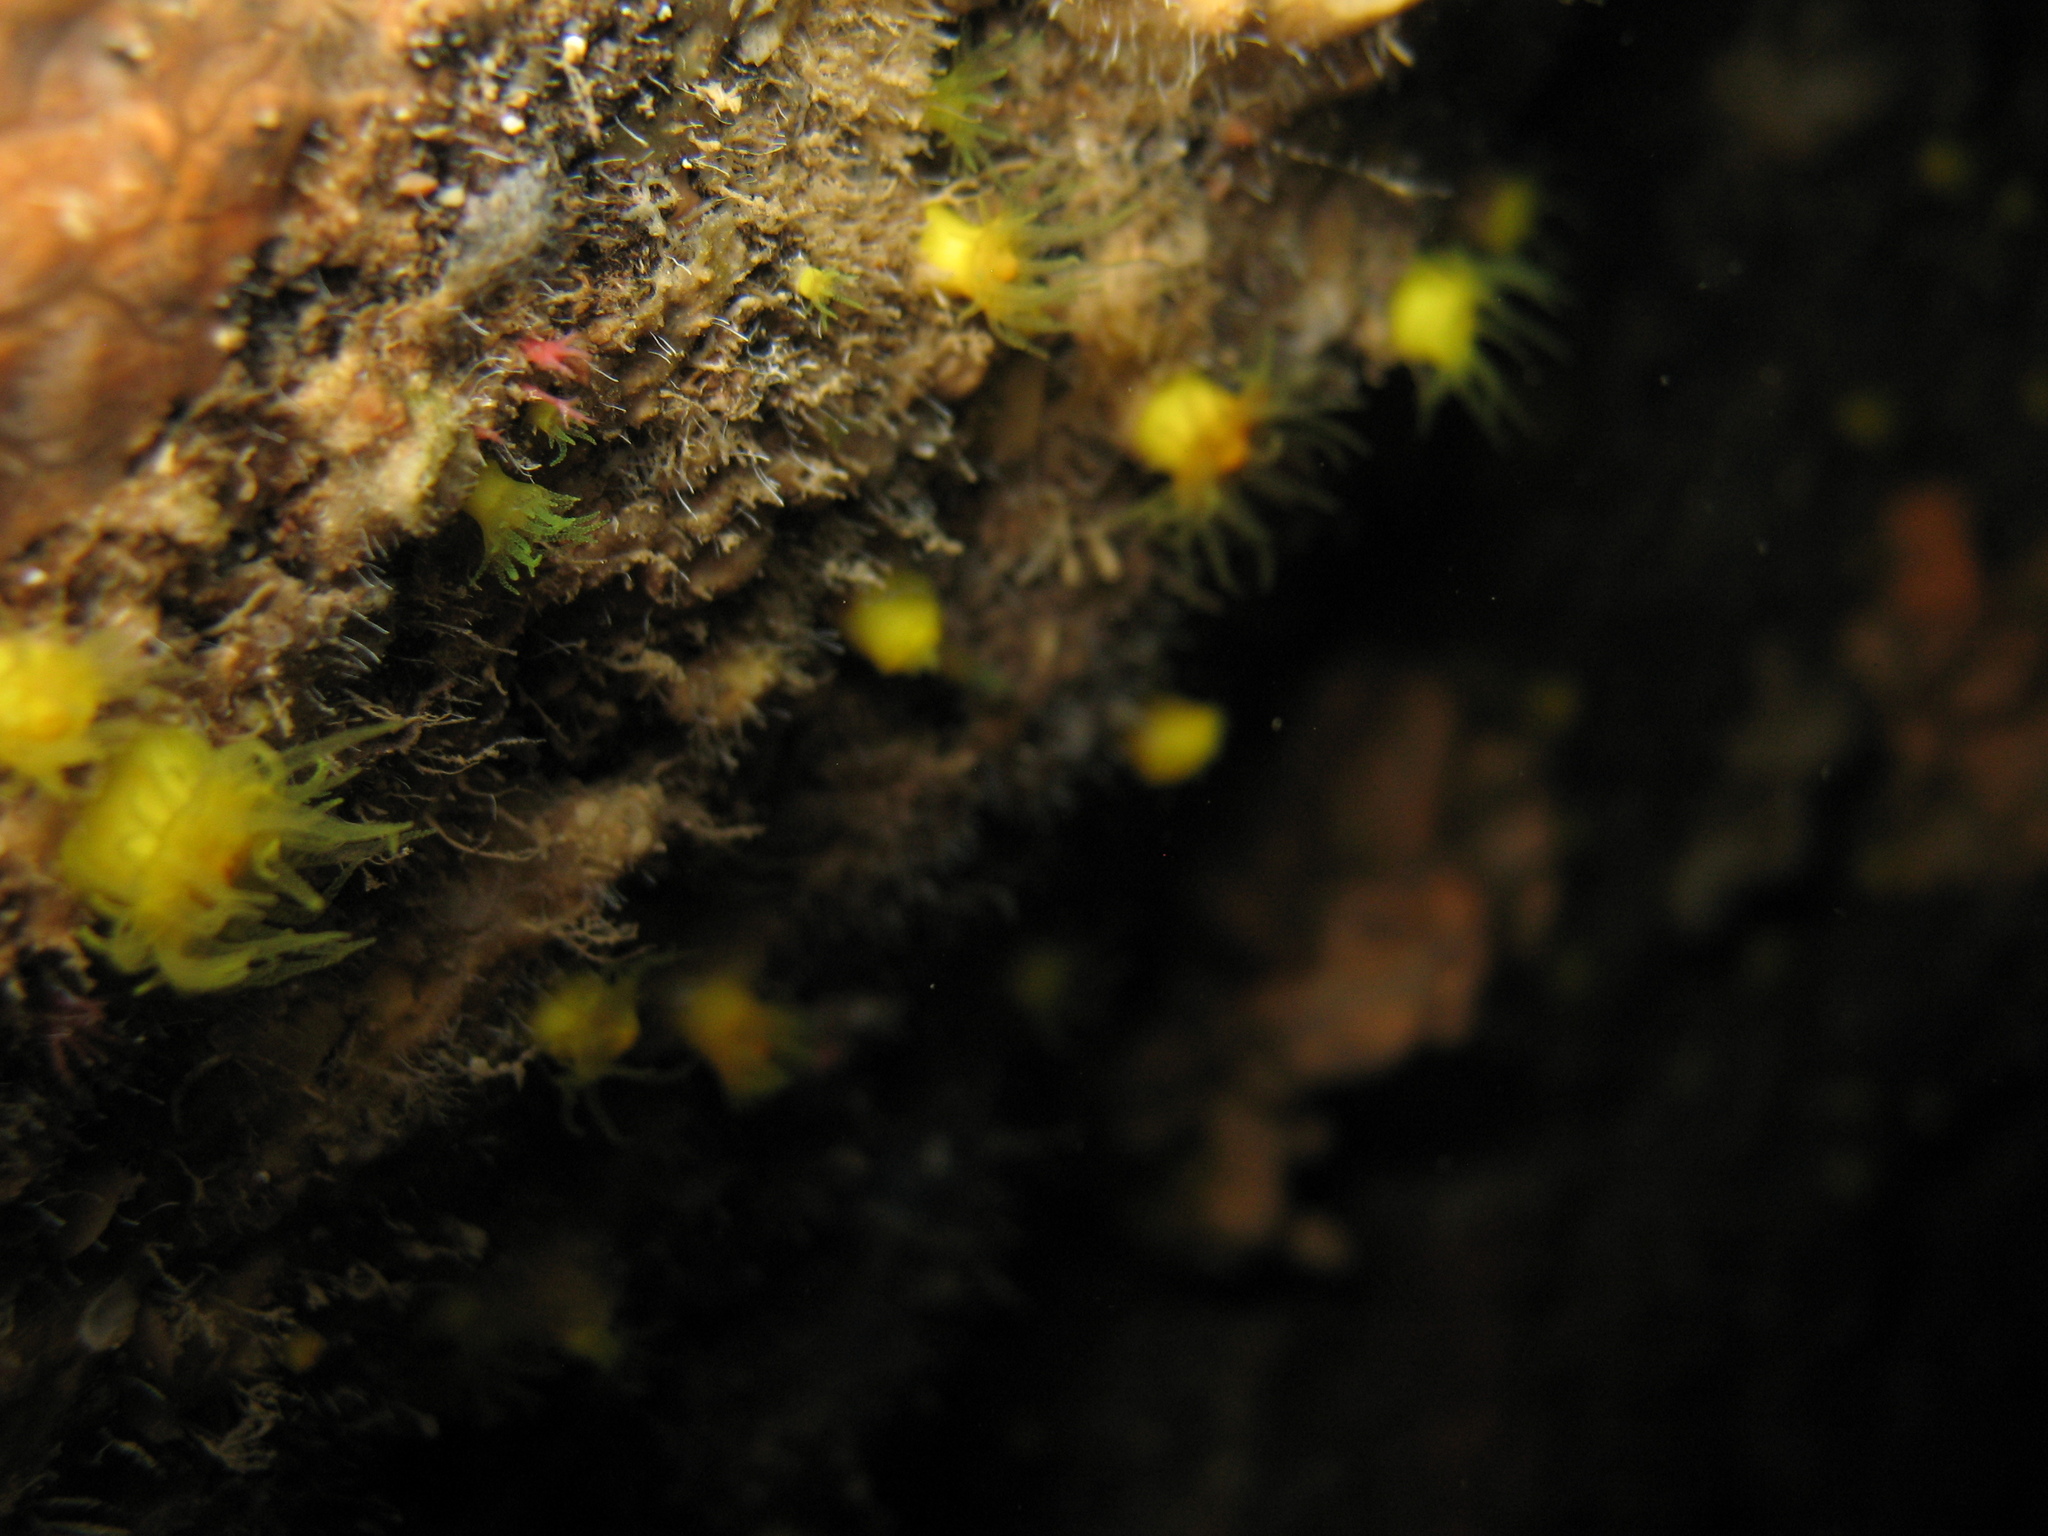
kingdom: Animalia
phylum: Cnidaria
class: Anthozoa
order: Scleractinia
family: Dendrophylliidae
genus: Leptopsammia
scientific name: Leptopsammia pruvoti
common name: Sunset cup coral
